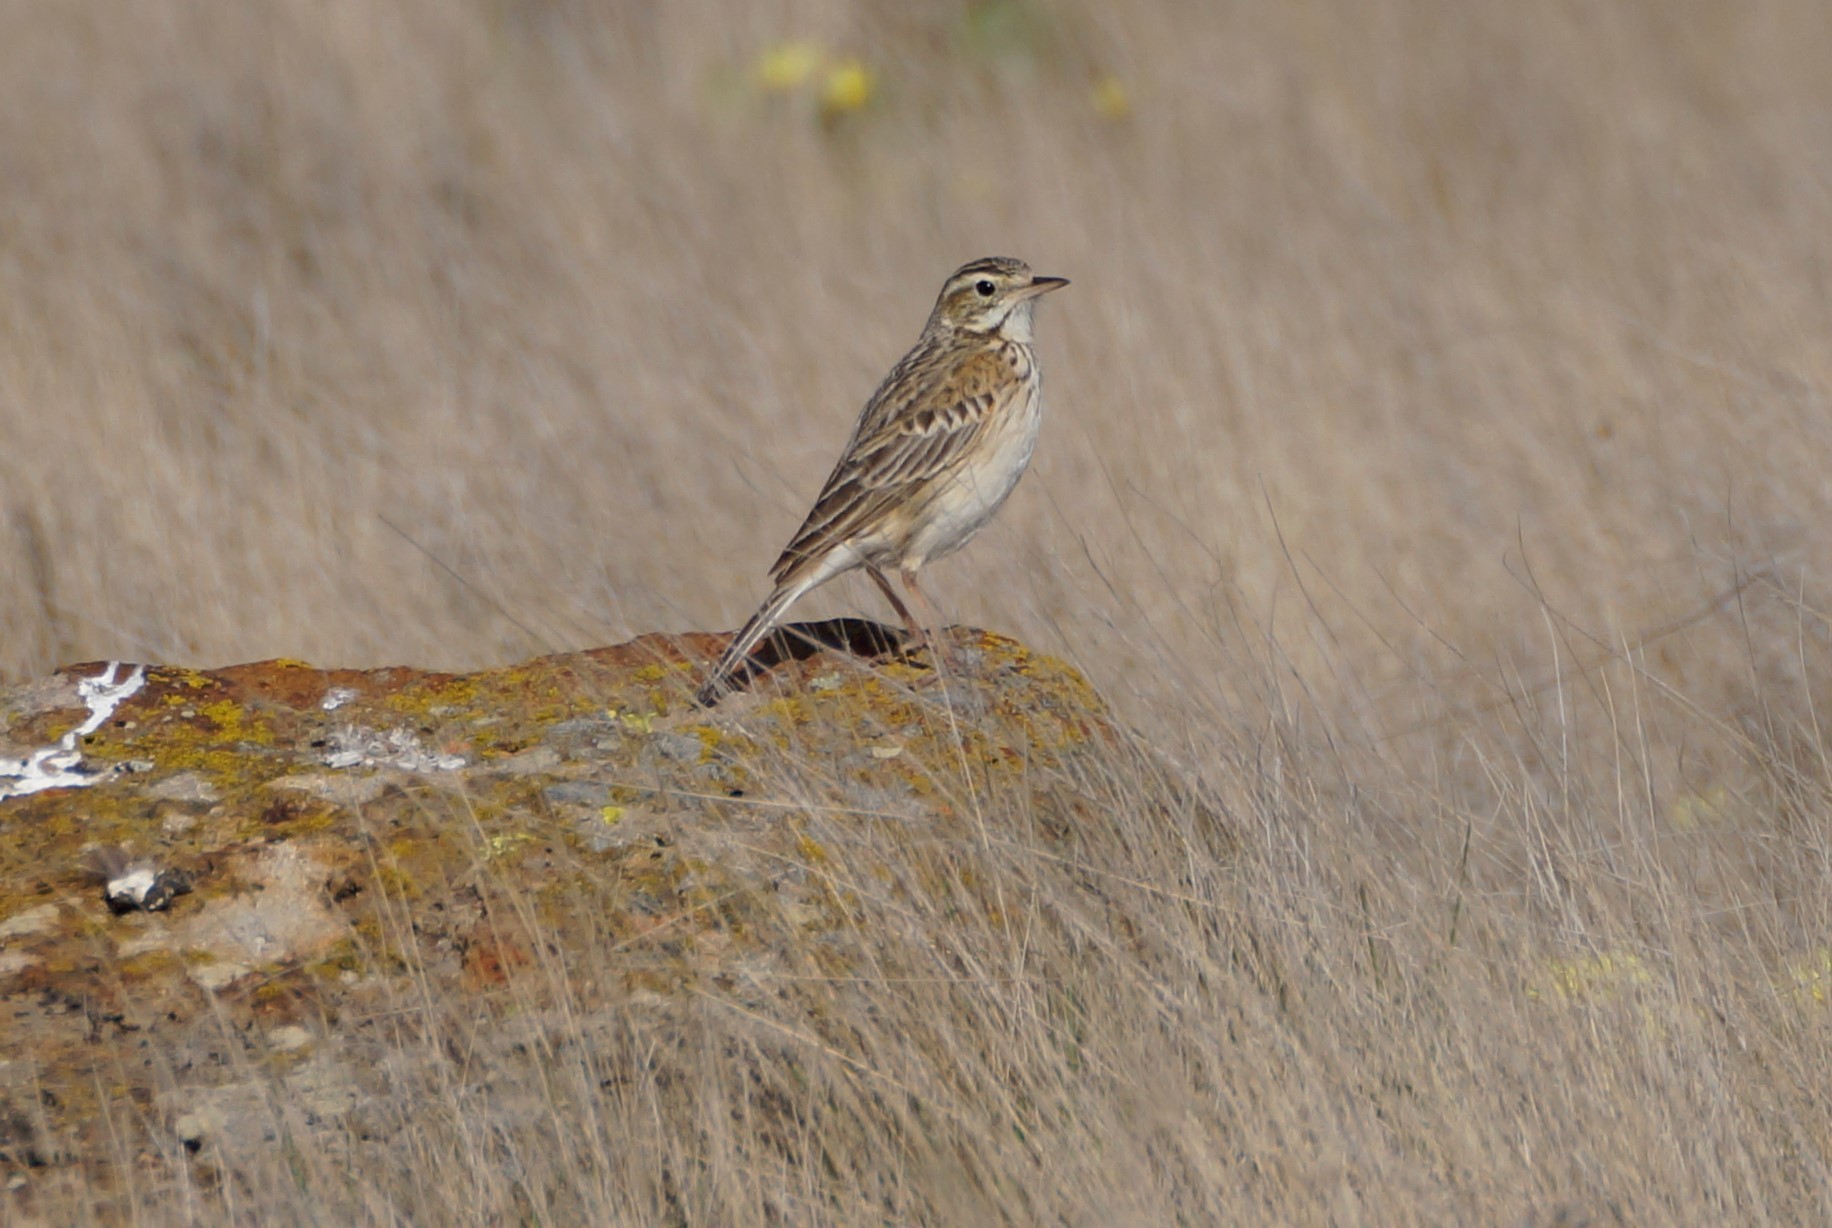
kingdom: Animalia
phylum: Chordata
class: Aves
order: Passeriformes
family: Motacillidae
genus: Anthus
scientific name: Anthus australis
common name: Australian pipit
